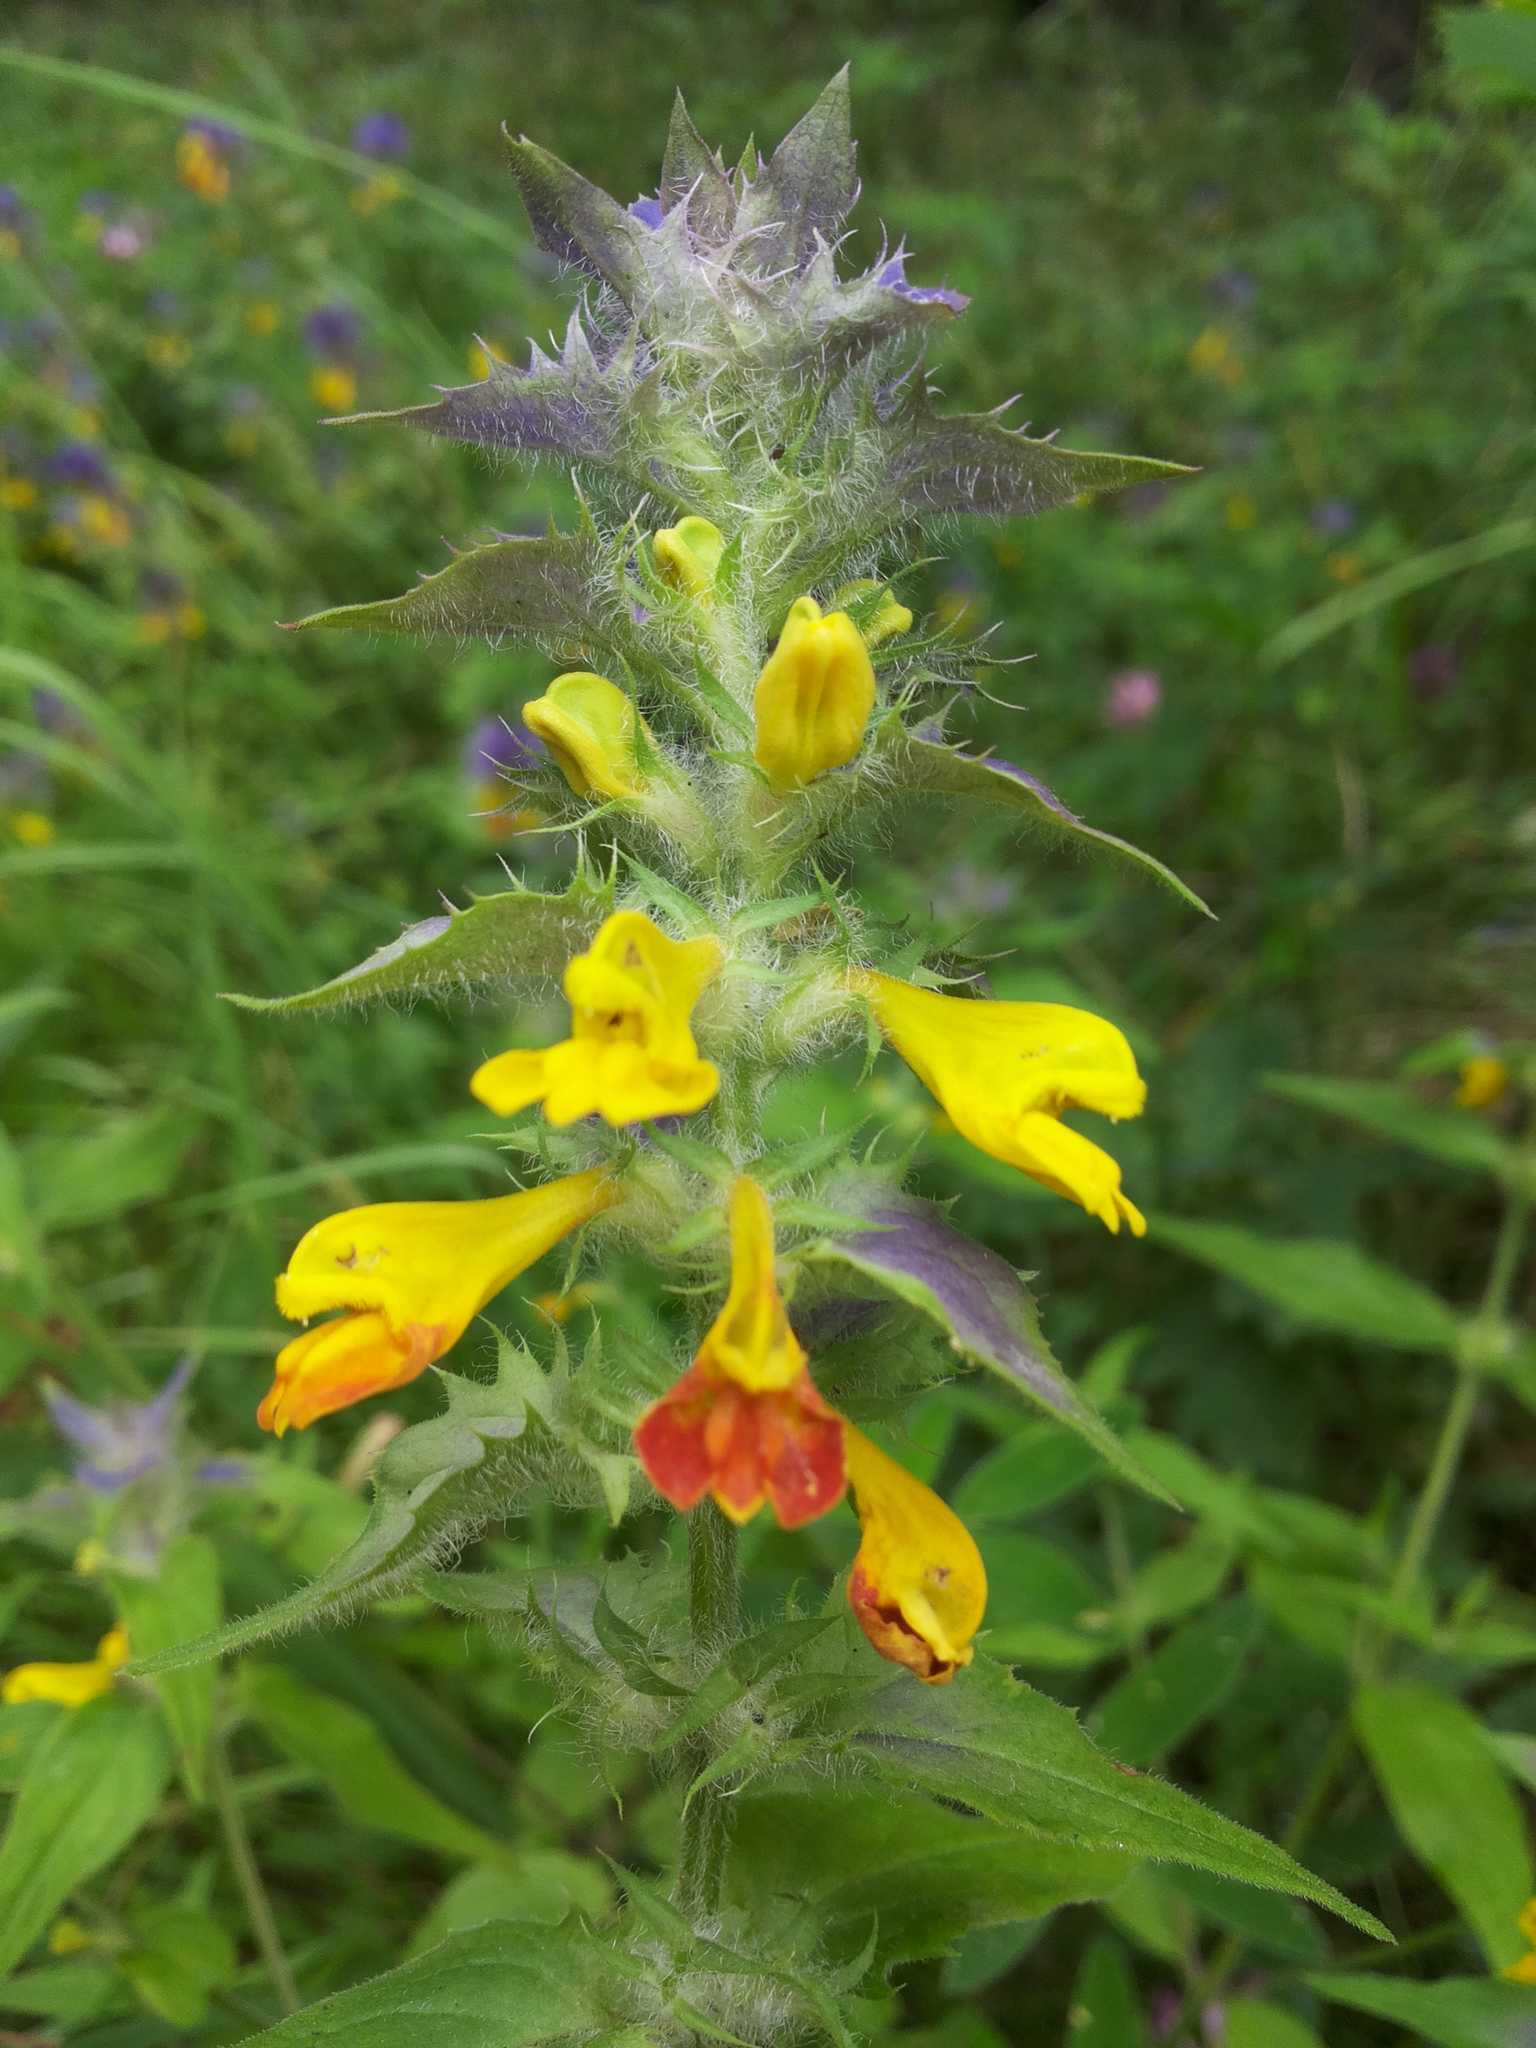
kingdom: Plantae
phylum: Tracheophyta
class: Magnoliopsida
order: Lamiales
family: Orobanchaceae
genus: Melampyrum
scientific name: Melampyrum nemorosum
